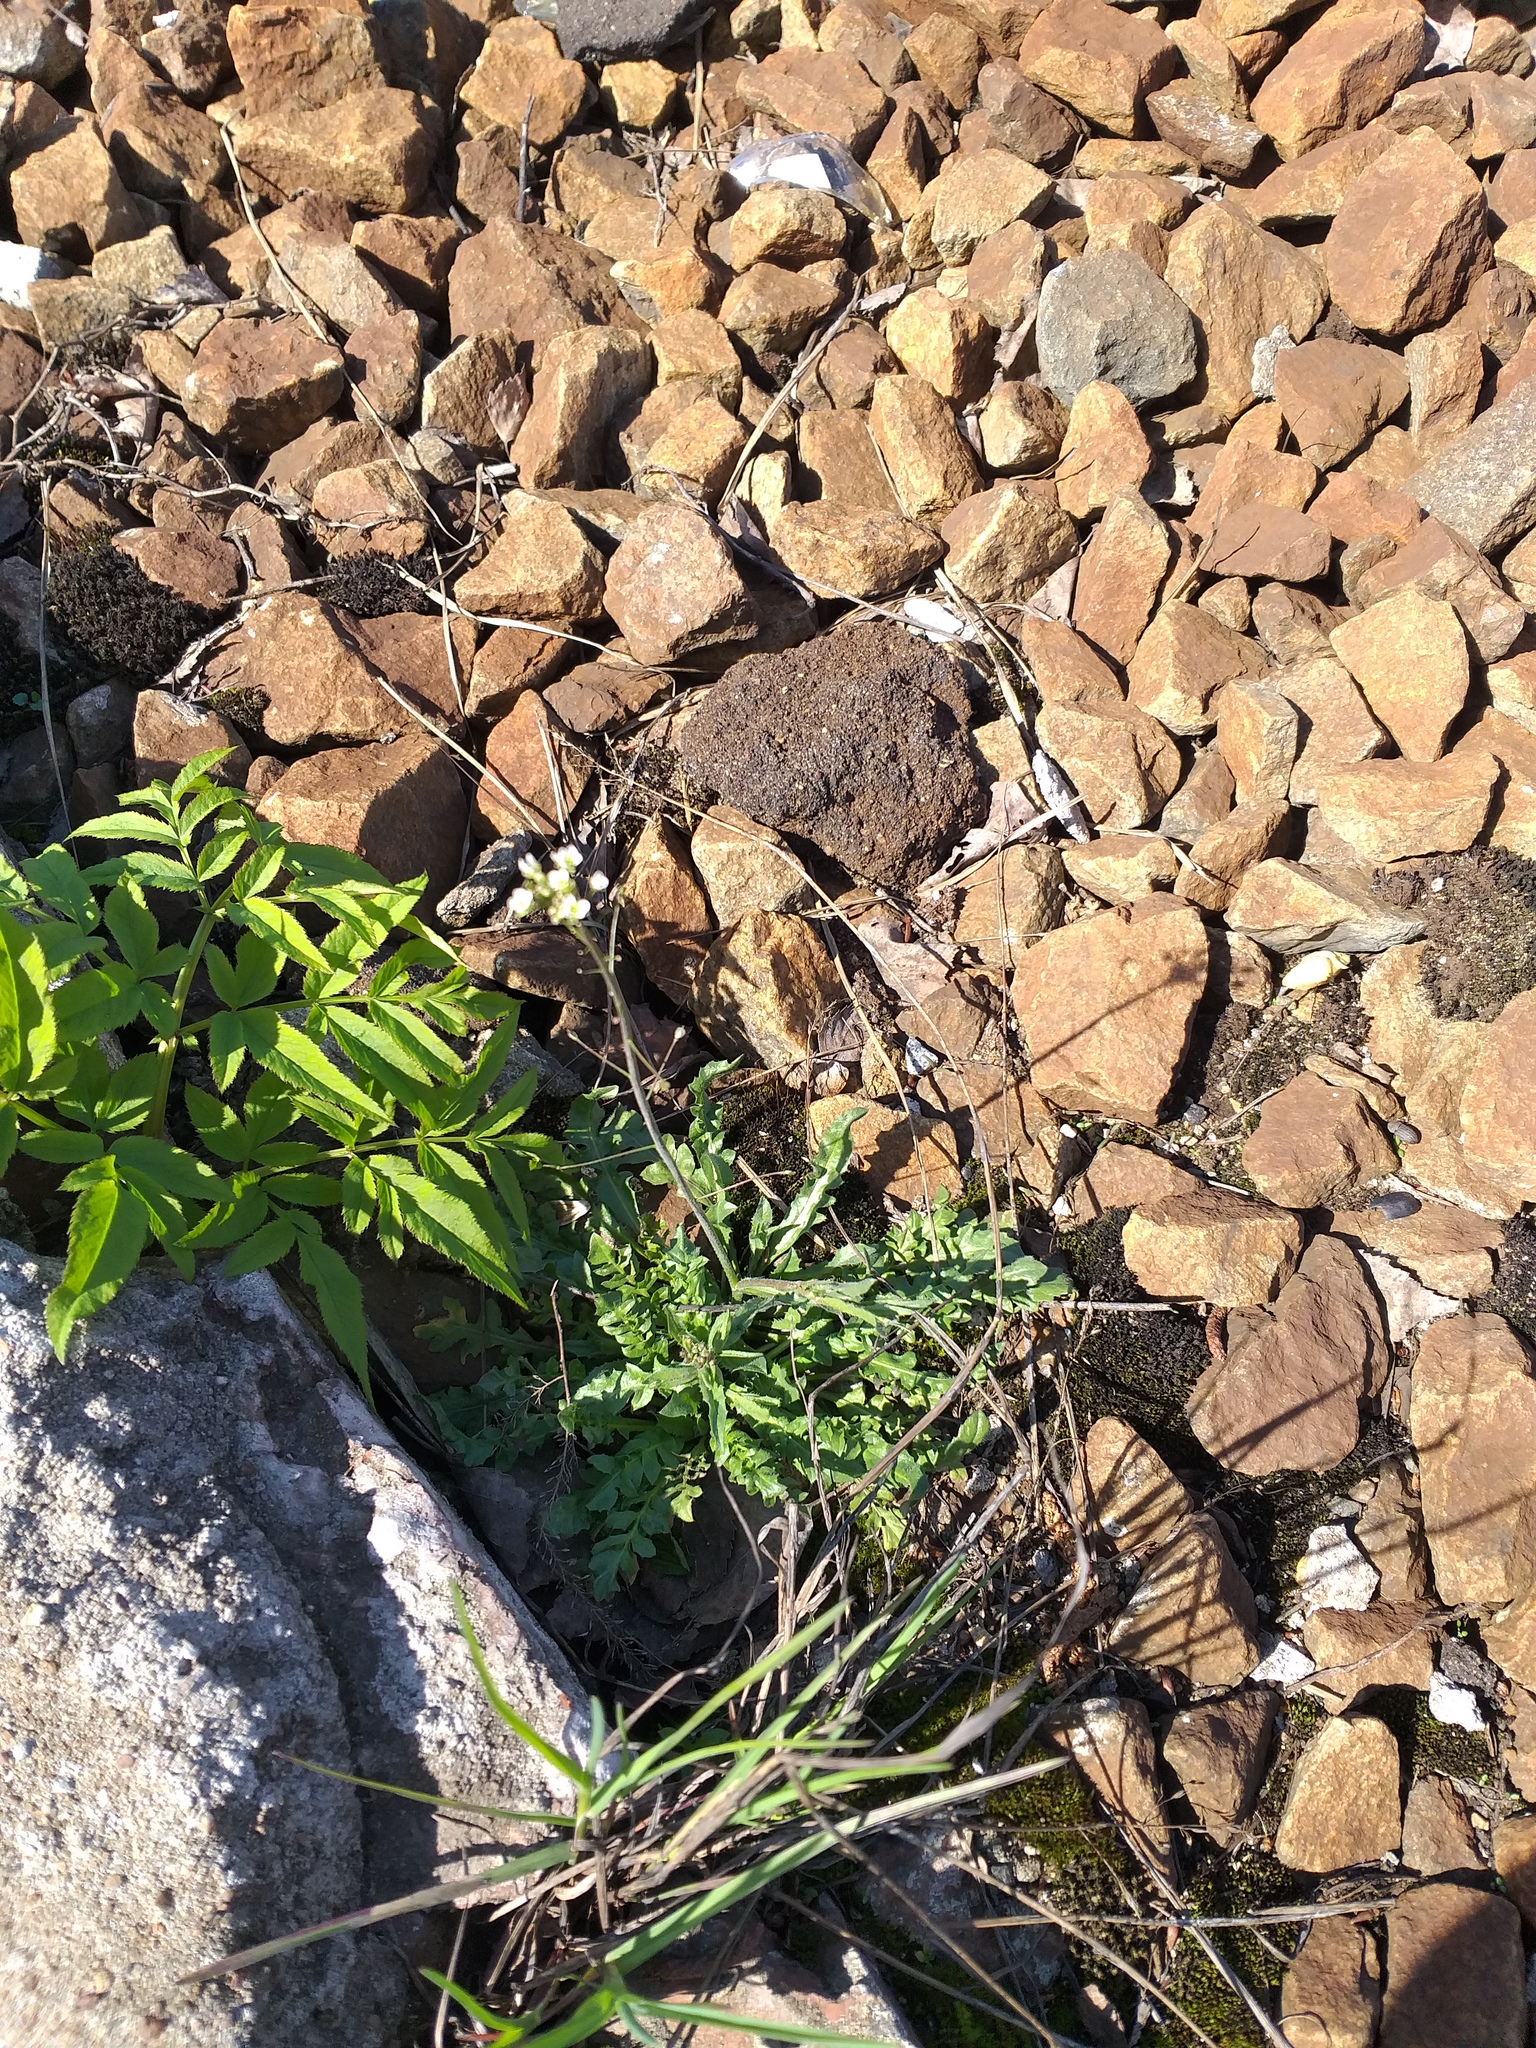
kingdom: Plantae
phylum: Tracheophyta
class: Magnoliopsida
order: Brassicales
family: Brassicaceae
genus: Capsella
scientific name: Capsella bursa-pastoris
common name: Shepherd's purse
